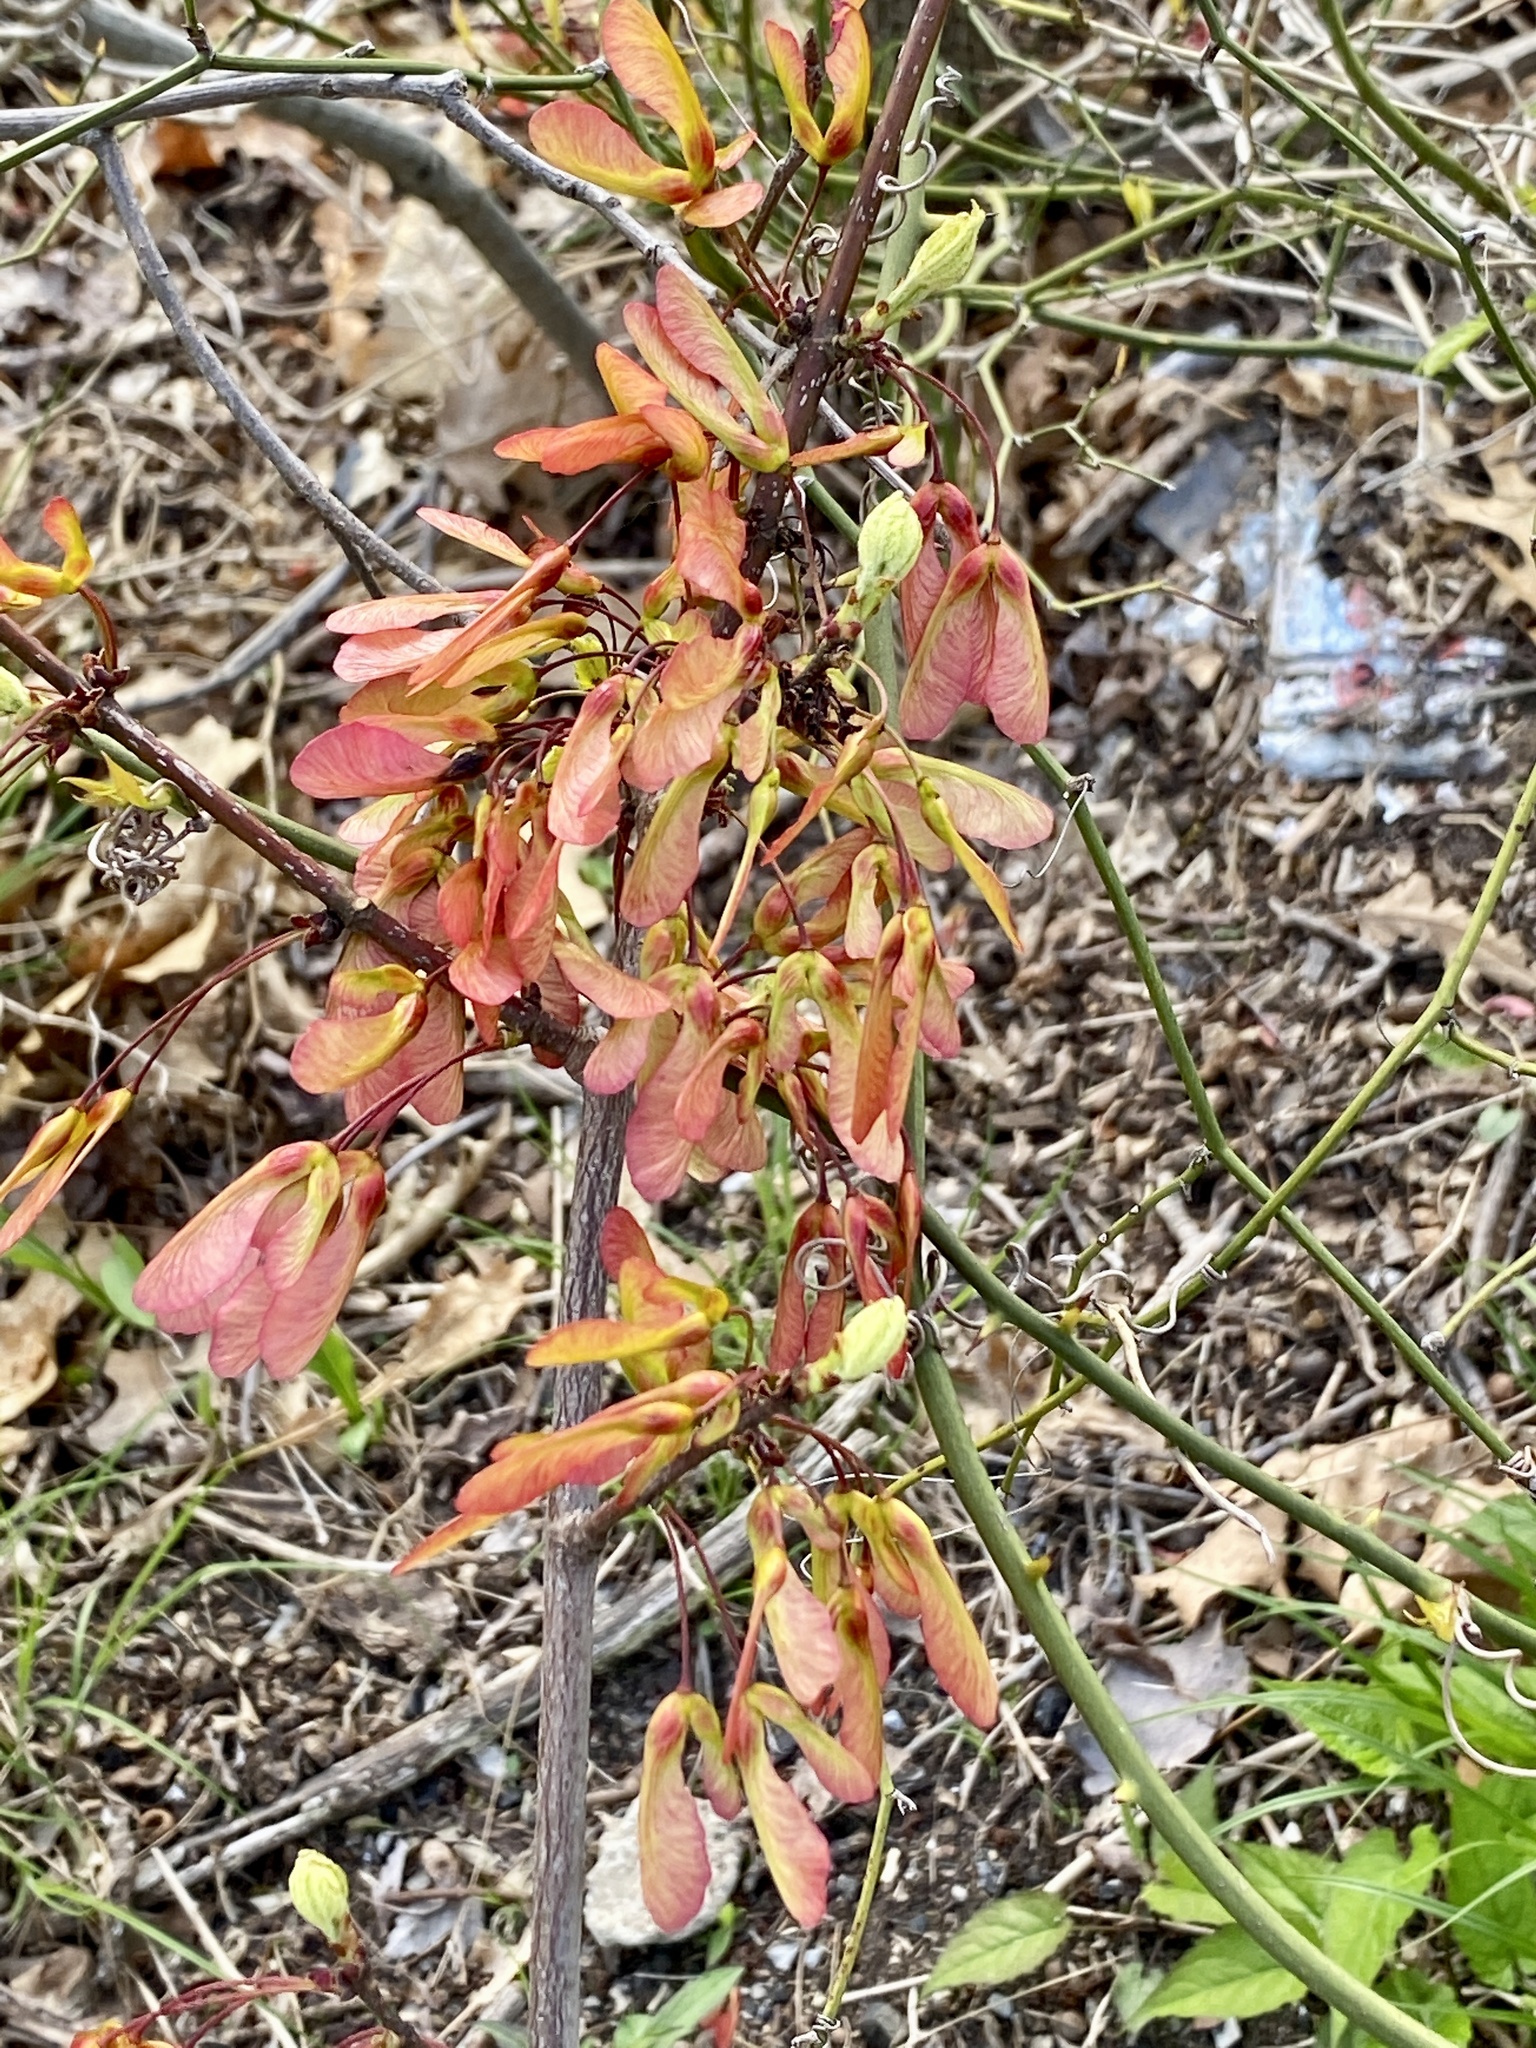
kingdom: Plantae
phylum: Tracheophyta
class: Magnoliopsida
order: Sapindales
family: Sapindaceae
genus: Acer
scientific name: Acer rubrum
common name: Red maple
